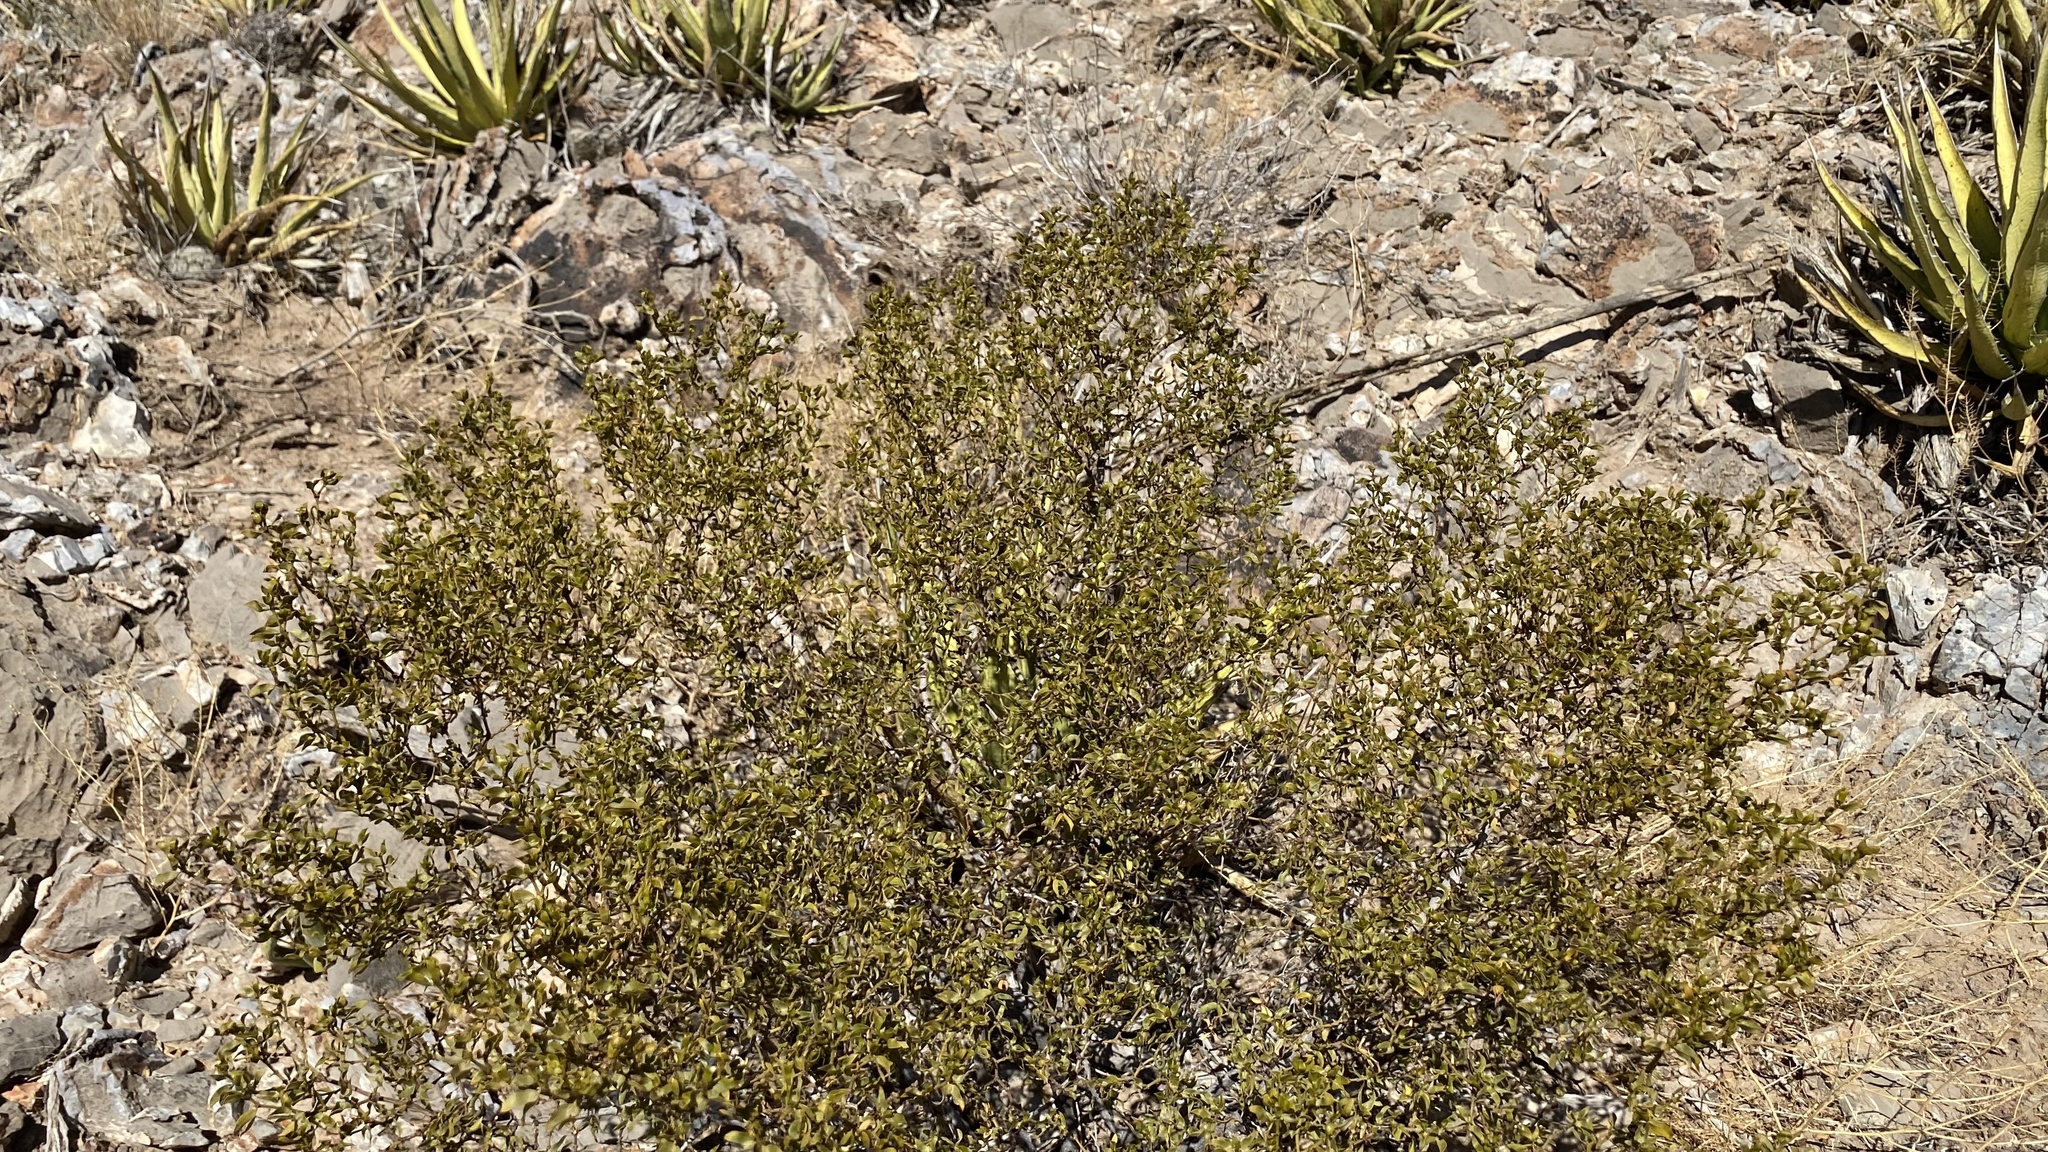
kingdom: Plantae
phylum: Tracheophyta
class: Magnoliopsida
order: Zygophyllales
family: Zygophyllaceae
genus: Larrea
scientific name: Larrea tridentata
